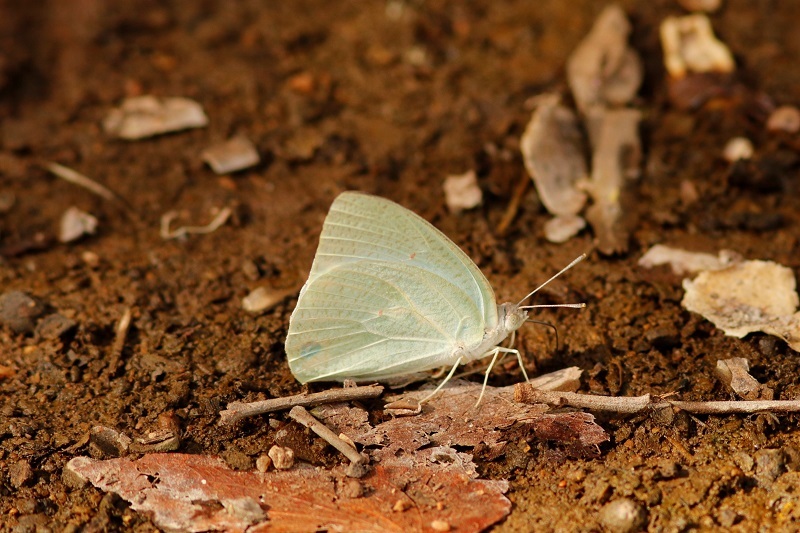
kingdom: Animalia
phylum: Arthropoda
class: Insecta
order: Lepidoptera
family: Pieridae
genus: Catopsilia
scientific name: Catopsilia florella
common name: African migrant
